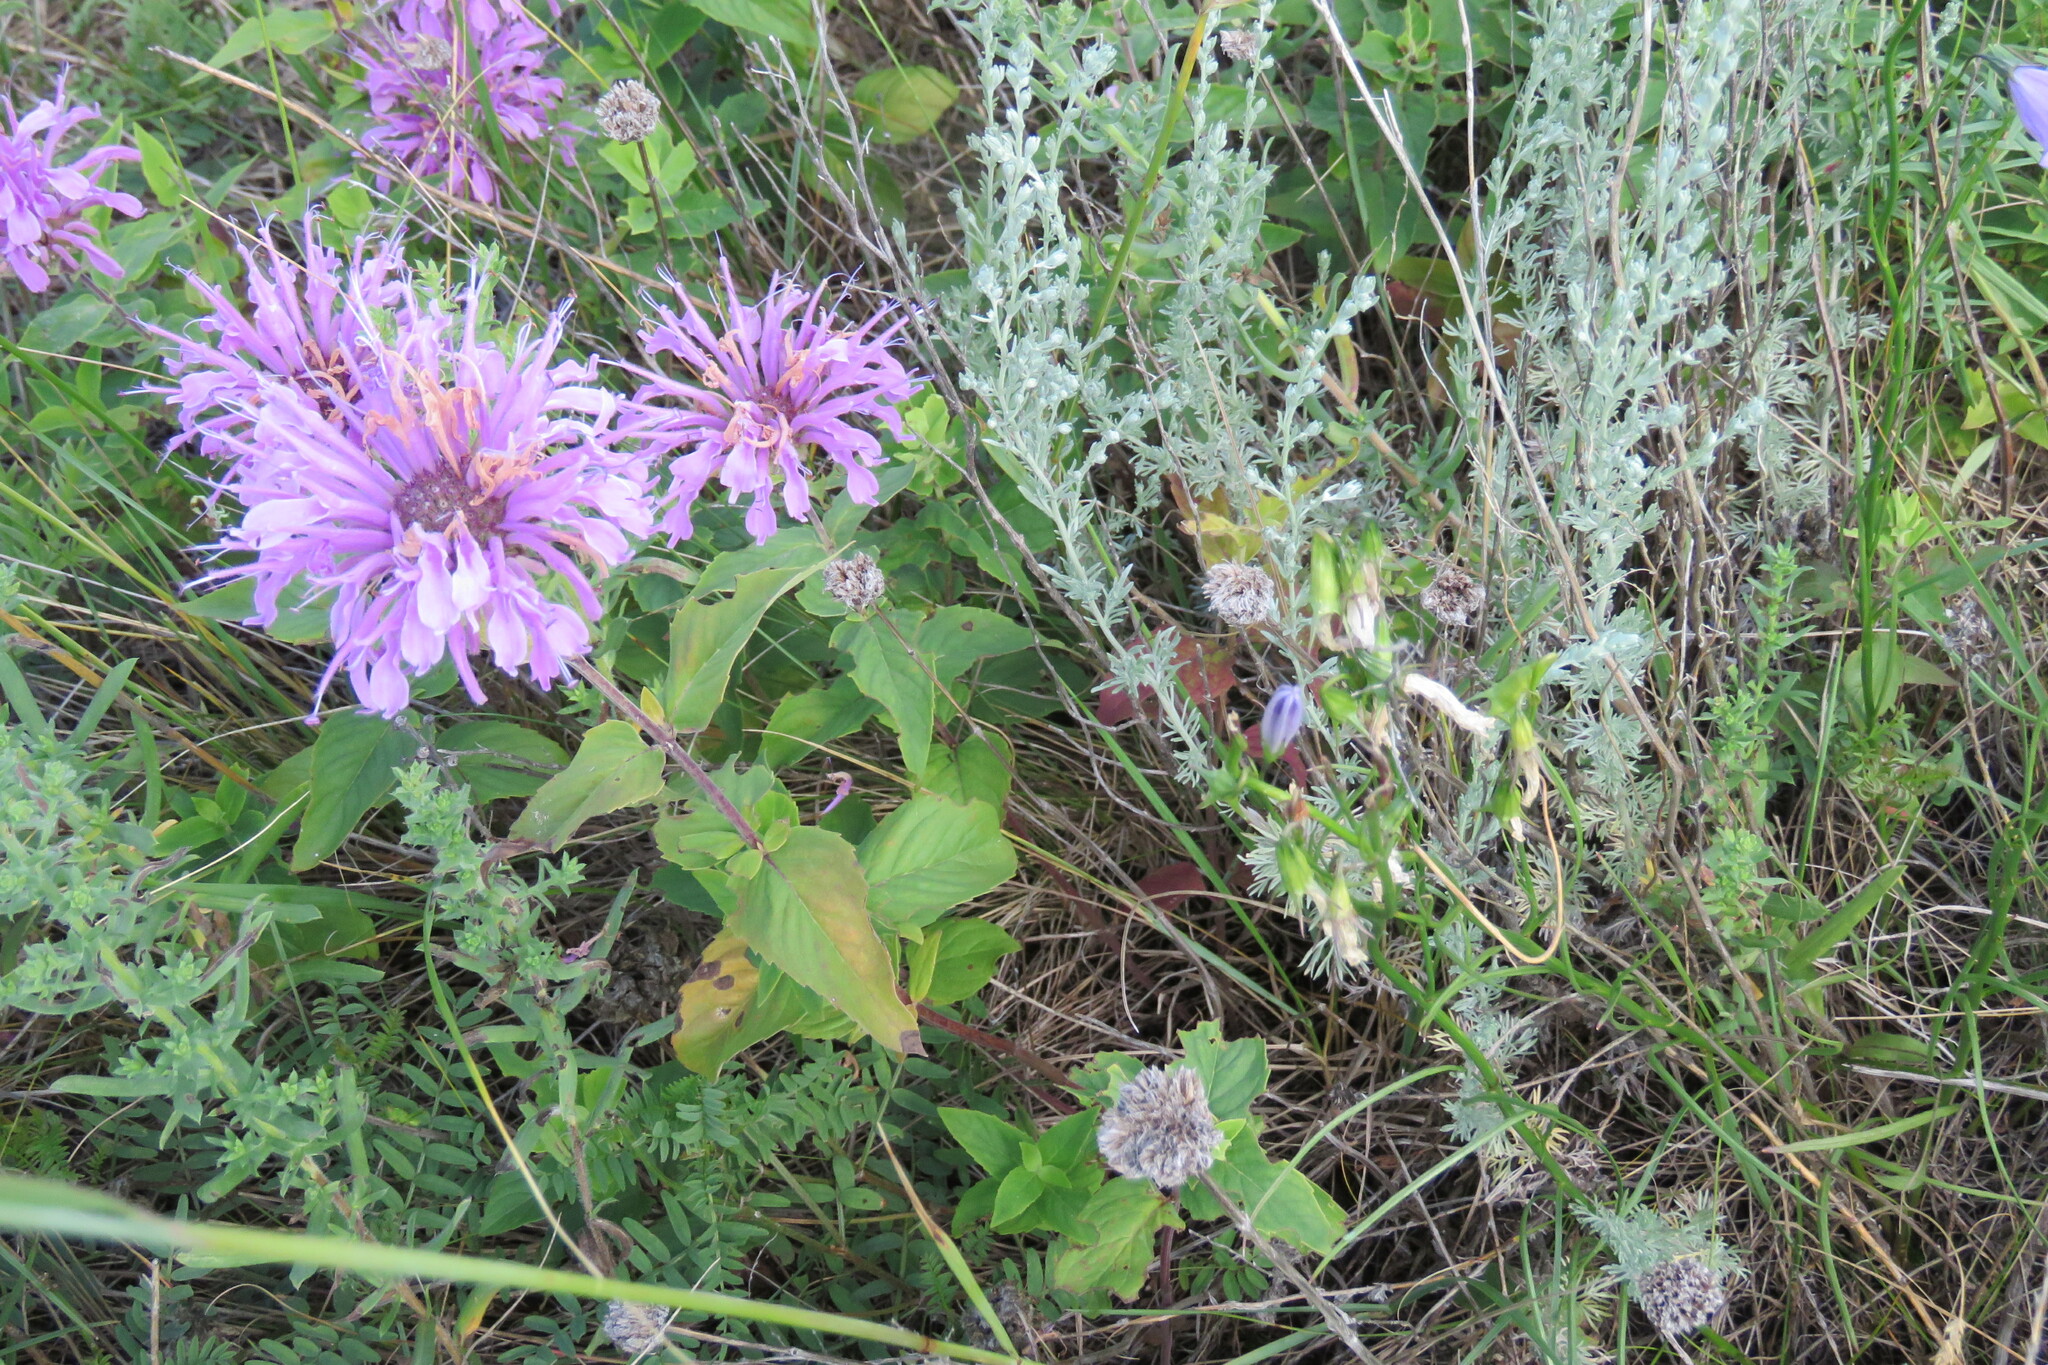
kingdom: Plantae
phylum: Tracheophyta
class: Magnoliopsida
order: Lamiales
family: Lamiaceae
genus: Monarda
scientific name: Monarda fistulosa
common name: Purple beebalm
